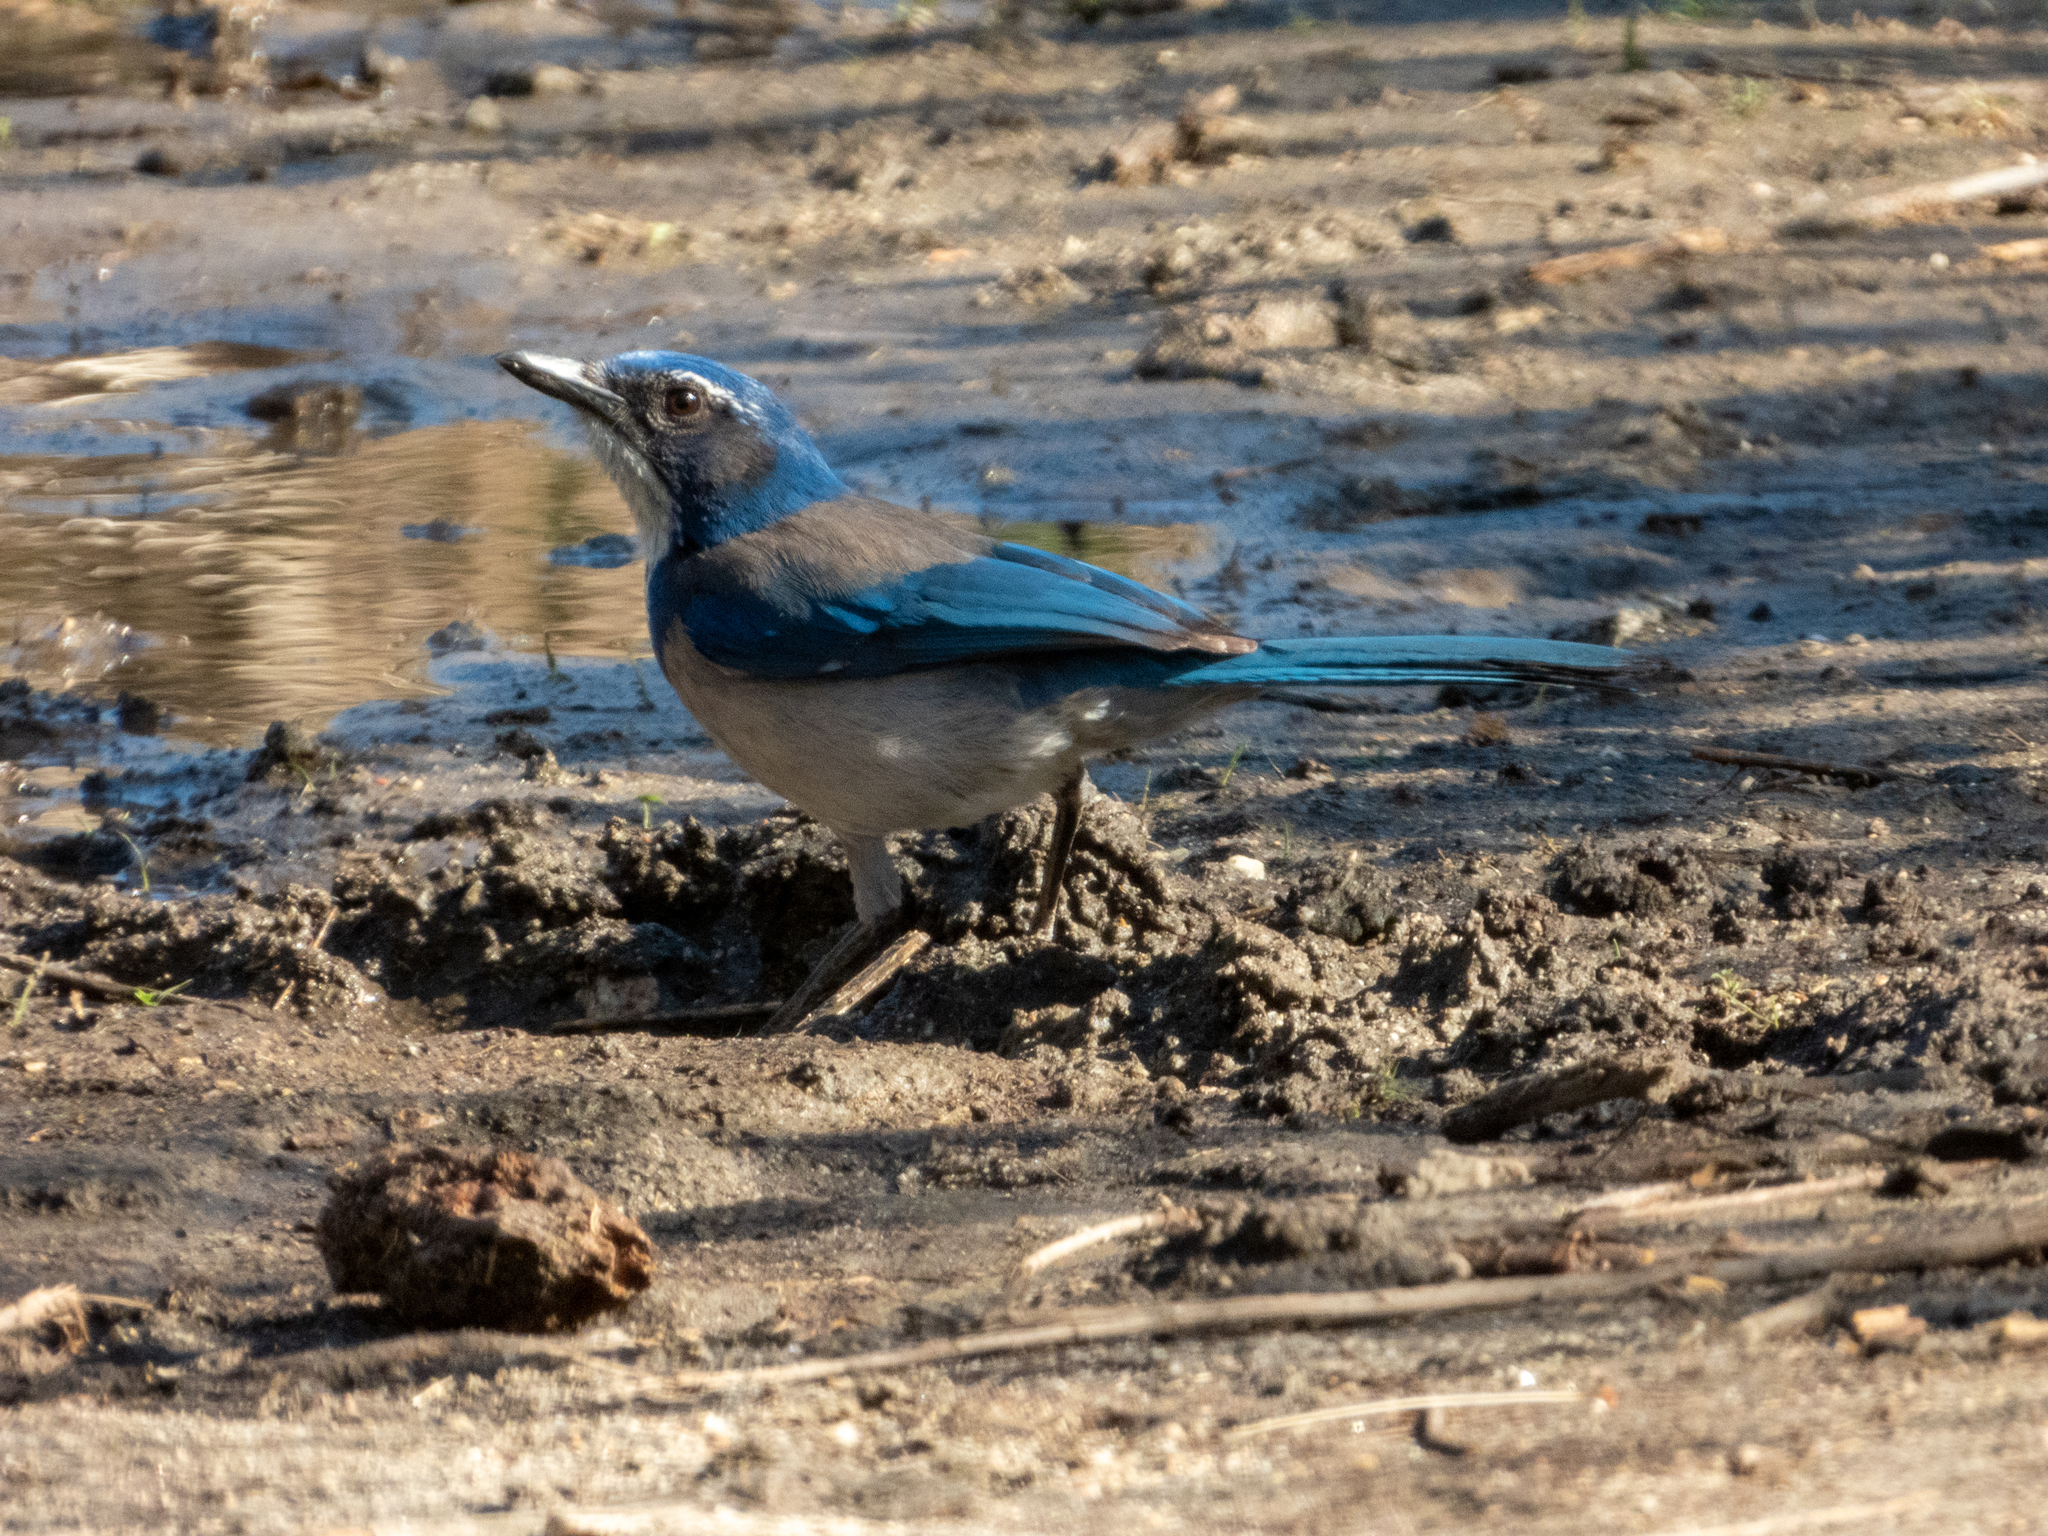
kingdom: Animalia
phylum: Chordata
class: Aves
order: Passeriformes
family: Corvidae
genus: Aphelocoma
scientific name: Aphelocoma californica
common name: California scrub-jay
